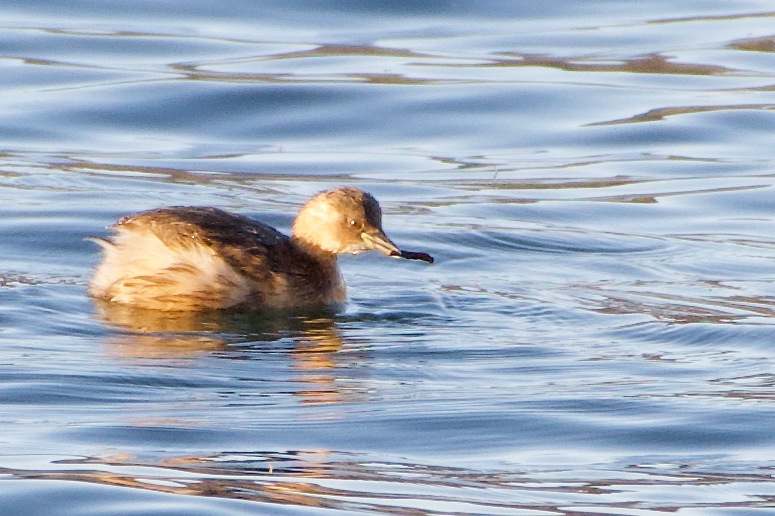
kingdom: Animalia
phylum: Chordata
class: Aves
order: Podicipediformes
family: Podicipedidae
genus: Tachybaptus
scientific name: Tachybaptus ruficollis
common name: Little grebe
